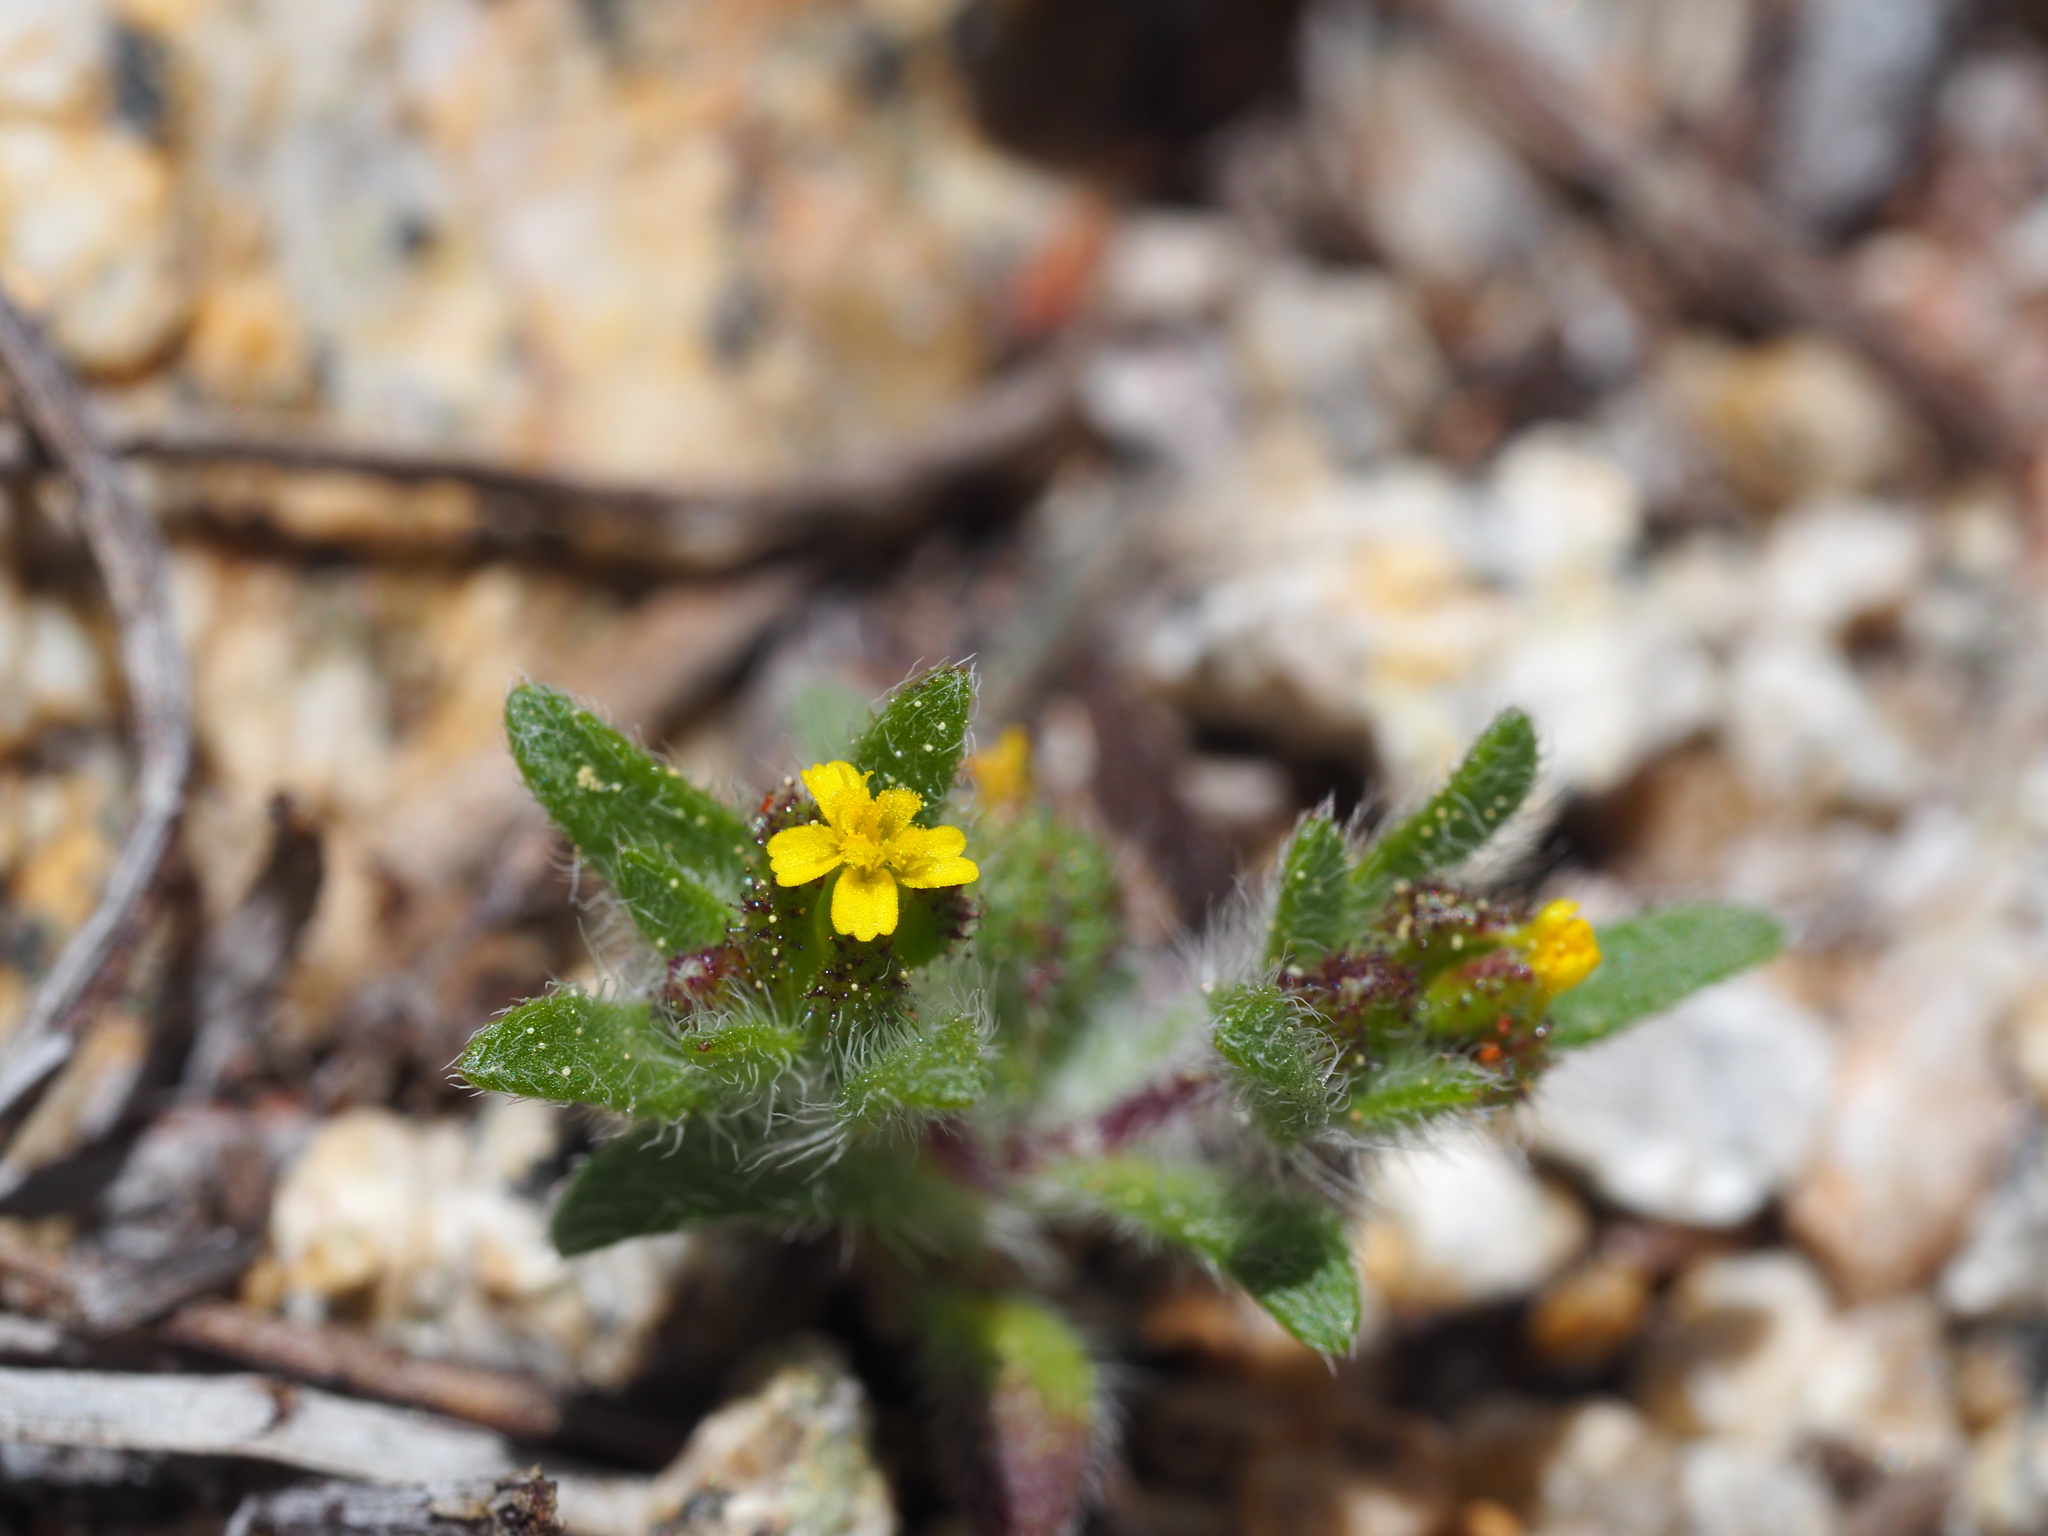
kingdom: Plantae
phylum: Tracheophyta
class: Magnoliopsida
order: Asterales
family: Asteraceae
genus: Hemizonella
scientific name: Hemizonella minima
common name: Opposite-leaved tarweed
